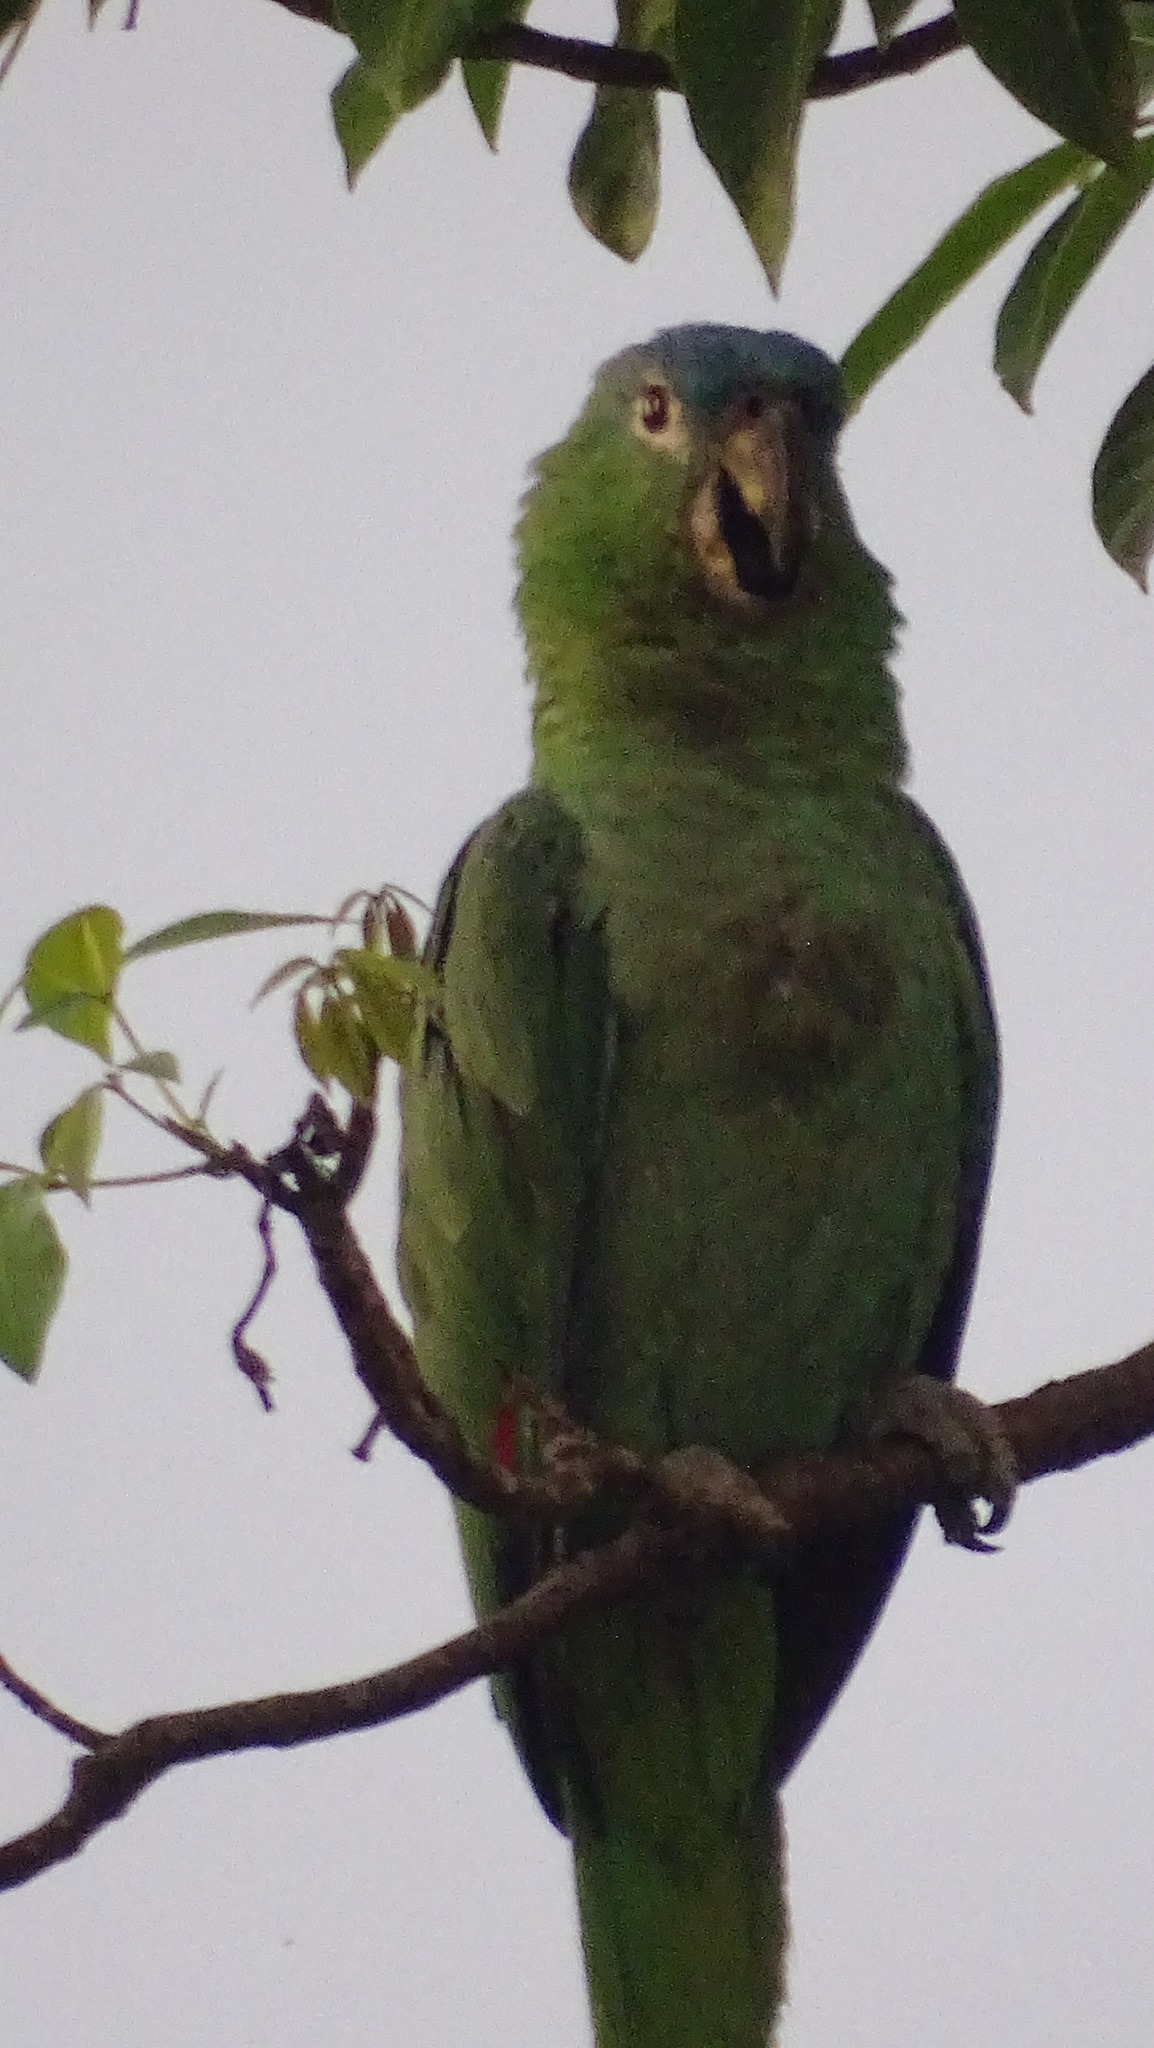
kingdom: Animalia
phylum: Chordata
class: Aves
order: Psittaciformes
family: Psittacidae
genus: Amazona
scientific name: Amazona farinosa
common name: Mealy parrot
